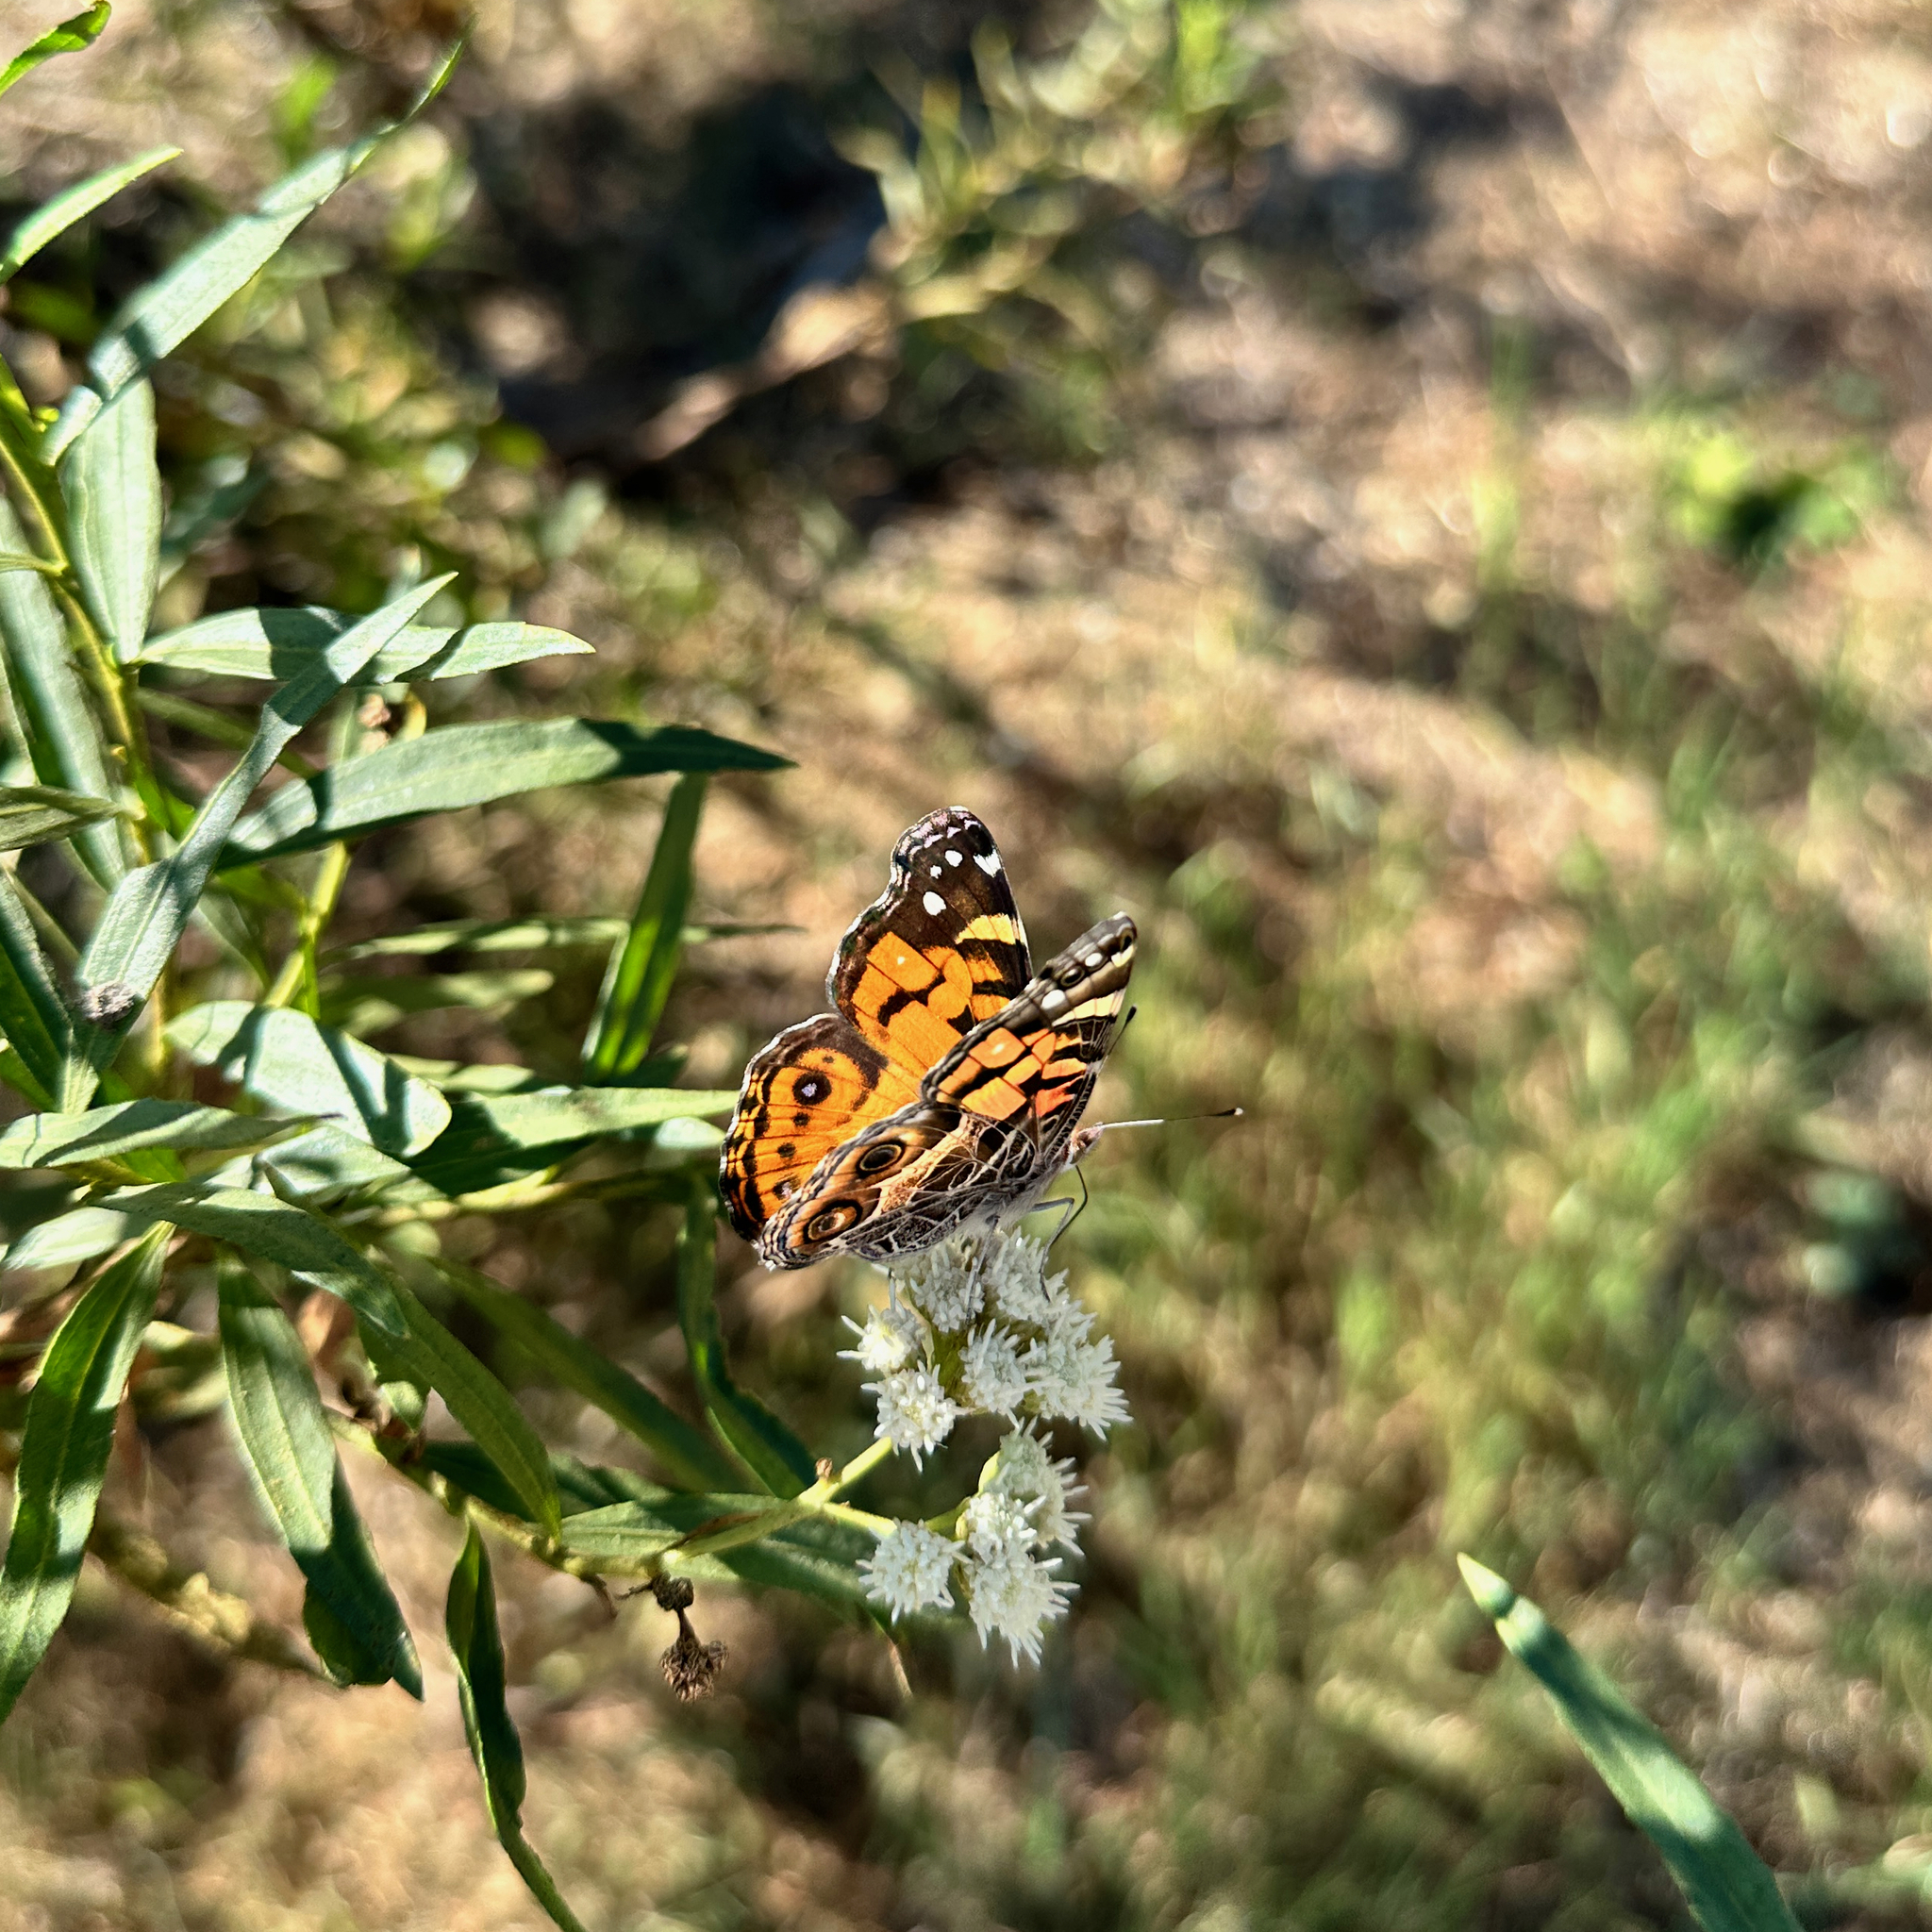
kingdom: Animalia
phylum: Arthropoda
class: Insecta
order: Lepidoptera
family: Nymphalidae
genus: Vanessa
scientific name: Vanessa virginiensis
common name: American lady
